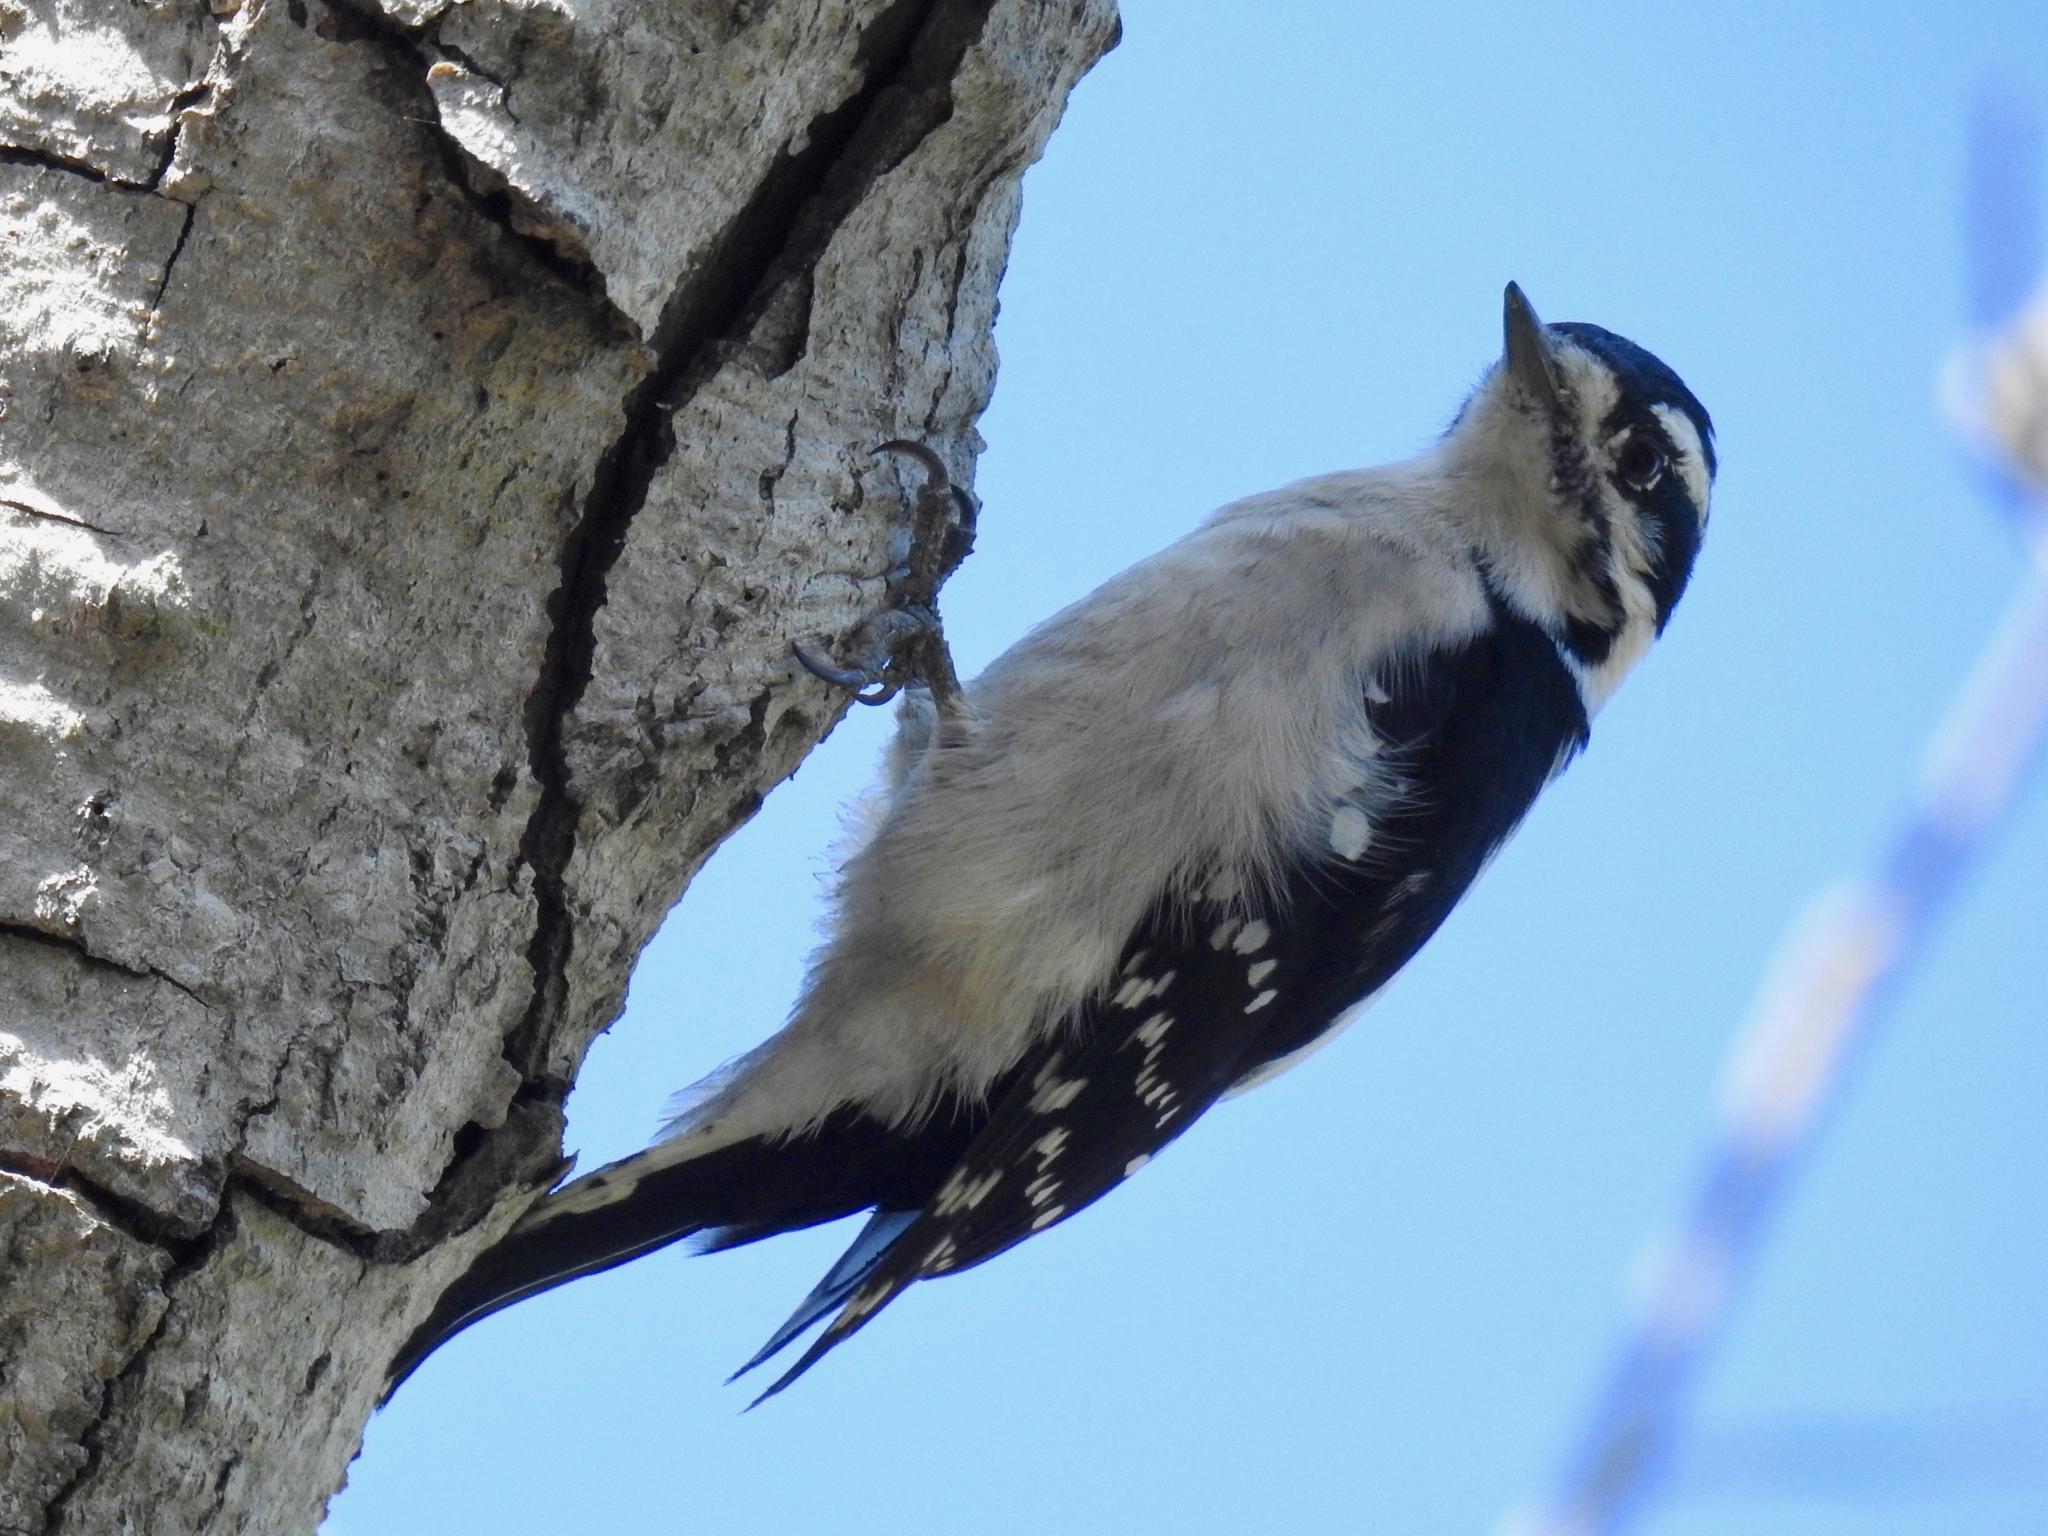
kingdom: Animalia
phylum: Chordata
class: Aves
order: Piciformes
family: Picidae
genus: Dryobates
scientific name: Dryobates pubescens
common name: Downy woodpecker
